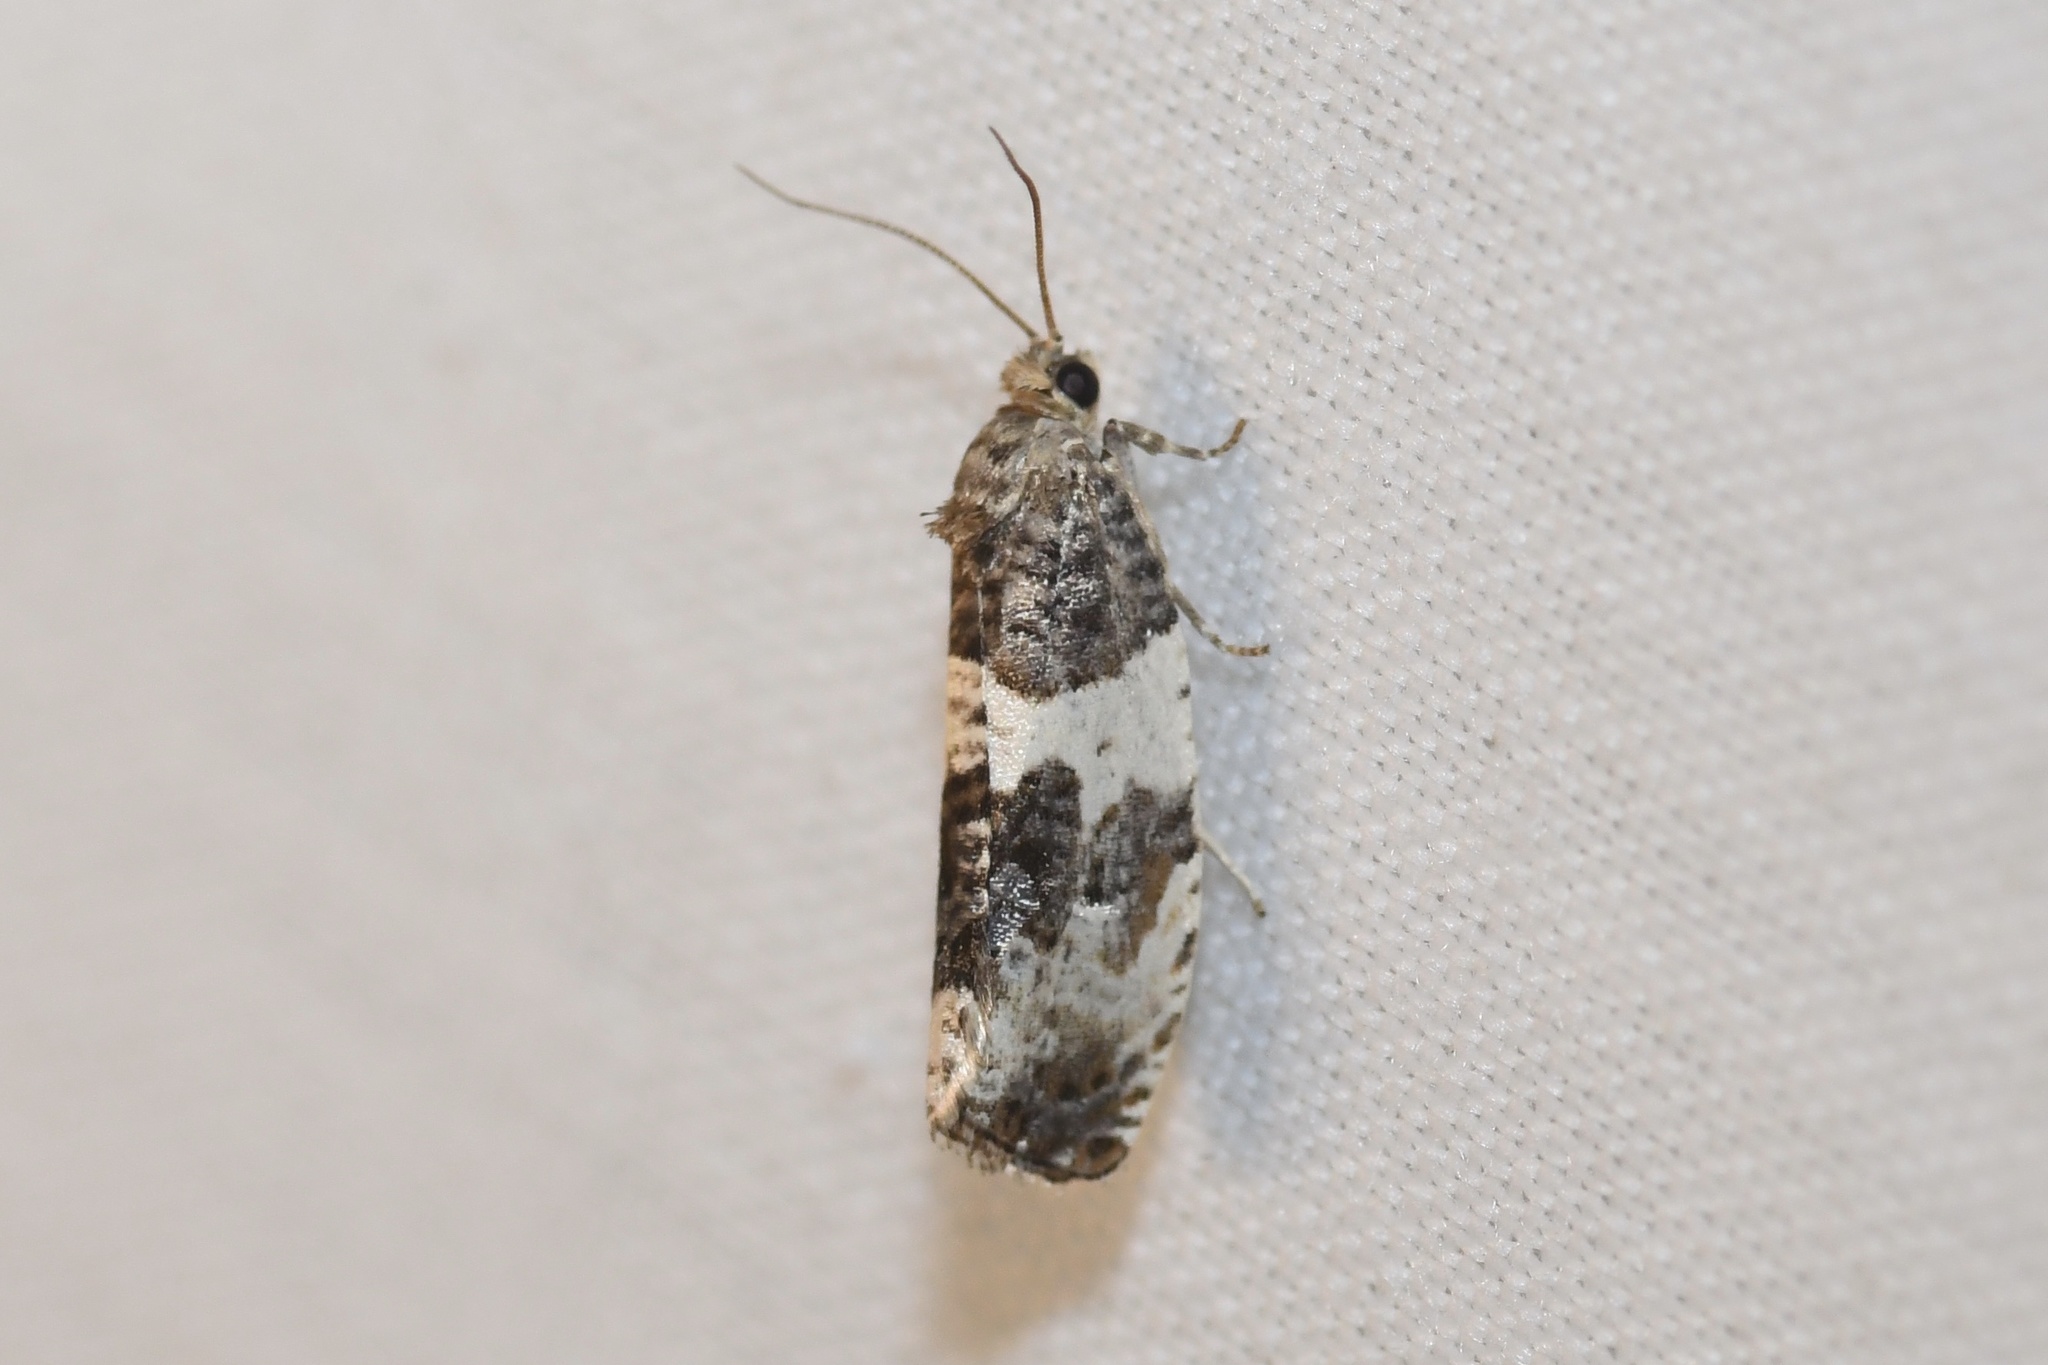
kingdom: Animalia
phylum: Arthropoda
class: Insecta
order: Lepidoptera
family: Tortricidae
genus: Pseudosciaphila
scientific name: Pseudosciaphila duplex
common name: Poplar leafroller moth
